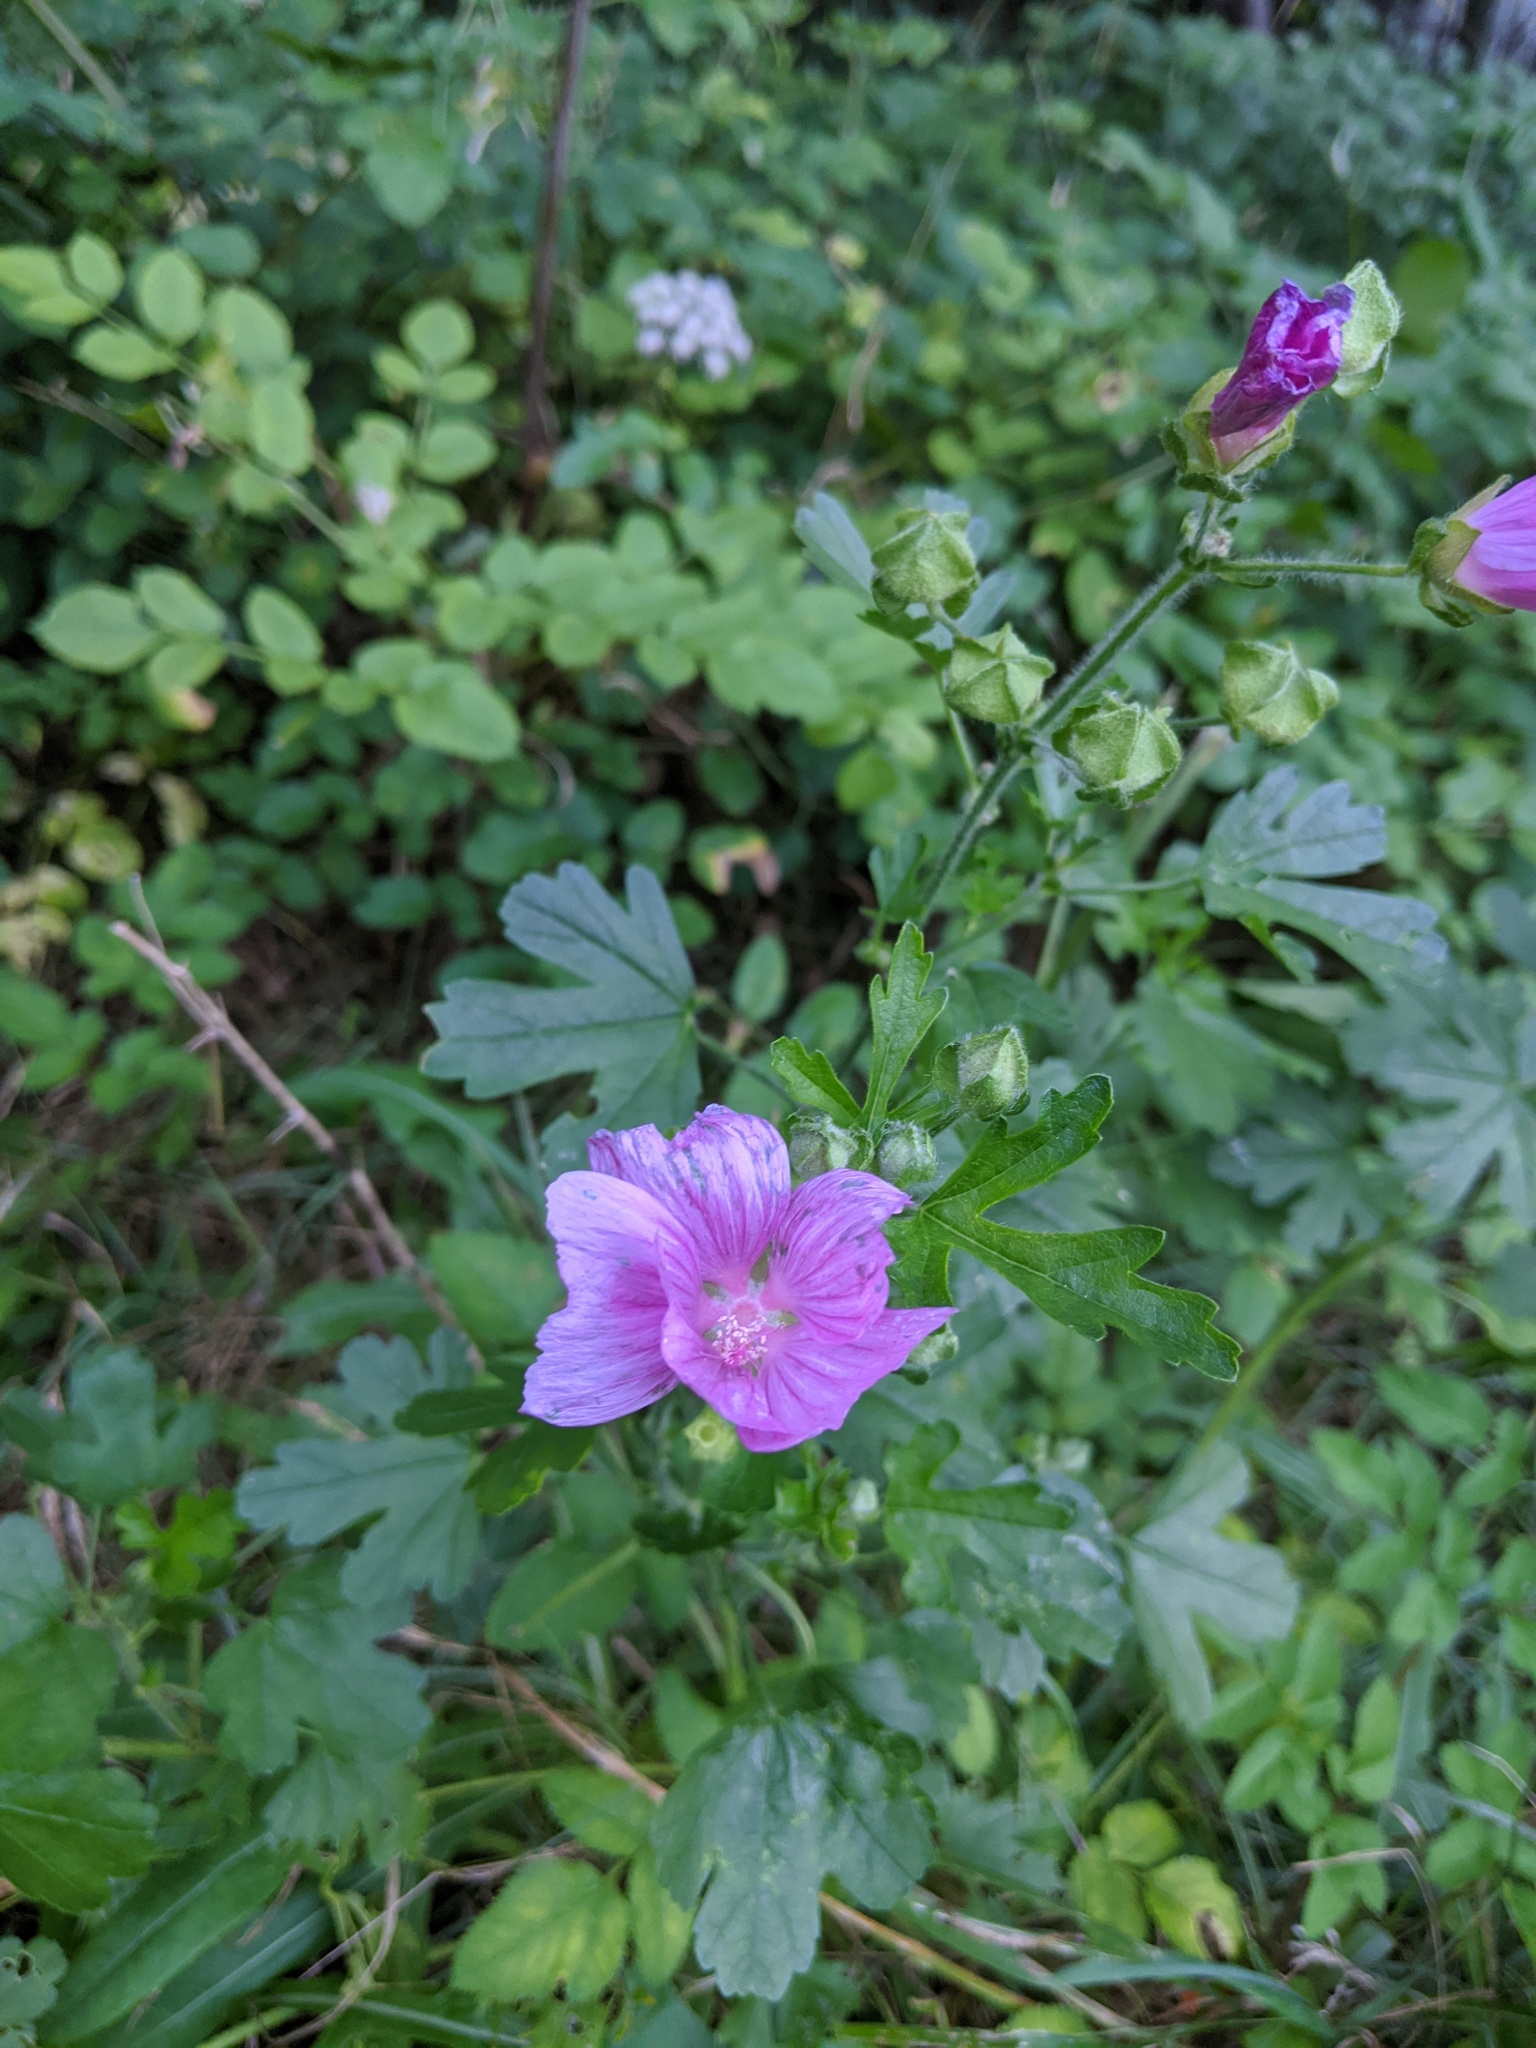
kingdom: Plantae
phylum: Tracheophyta
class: Magnoliopsida
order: Malvales
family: Malvaceae
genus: Malva
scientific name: Malva moschata
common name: Musk mallow
